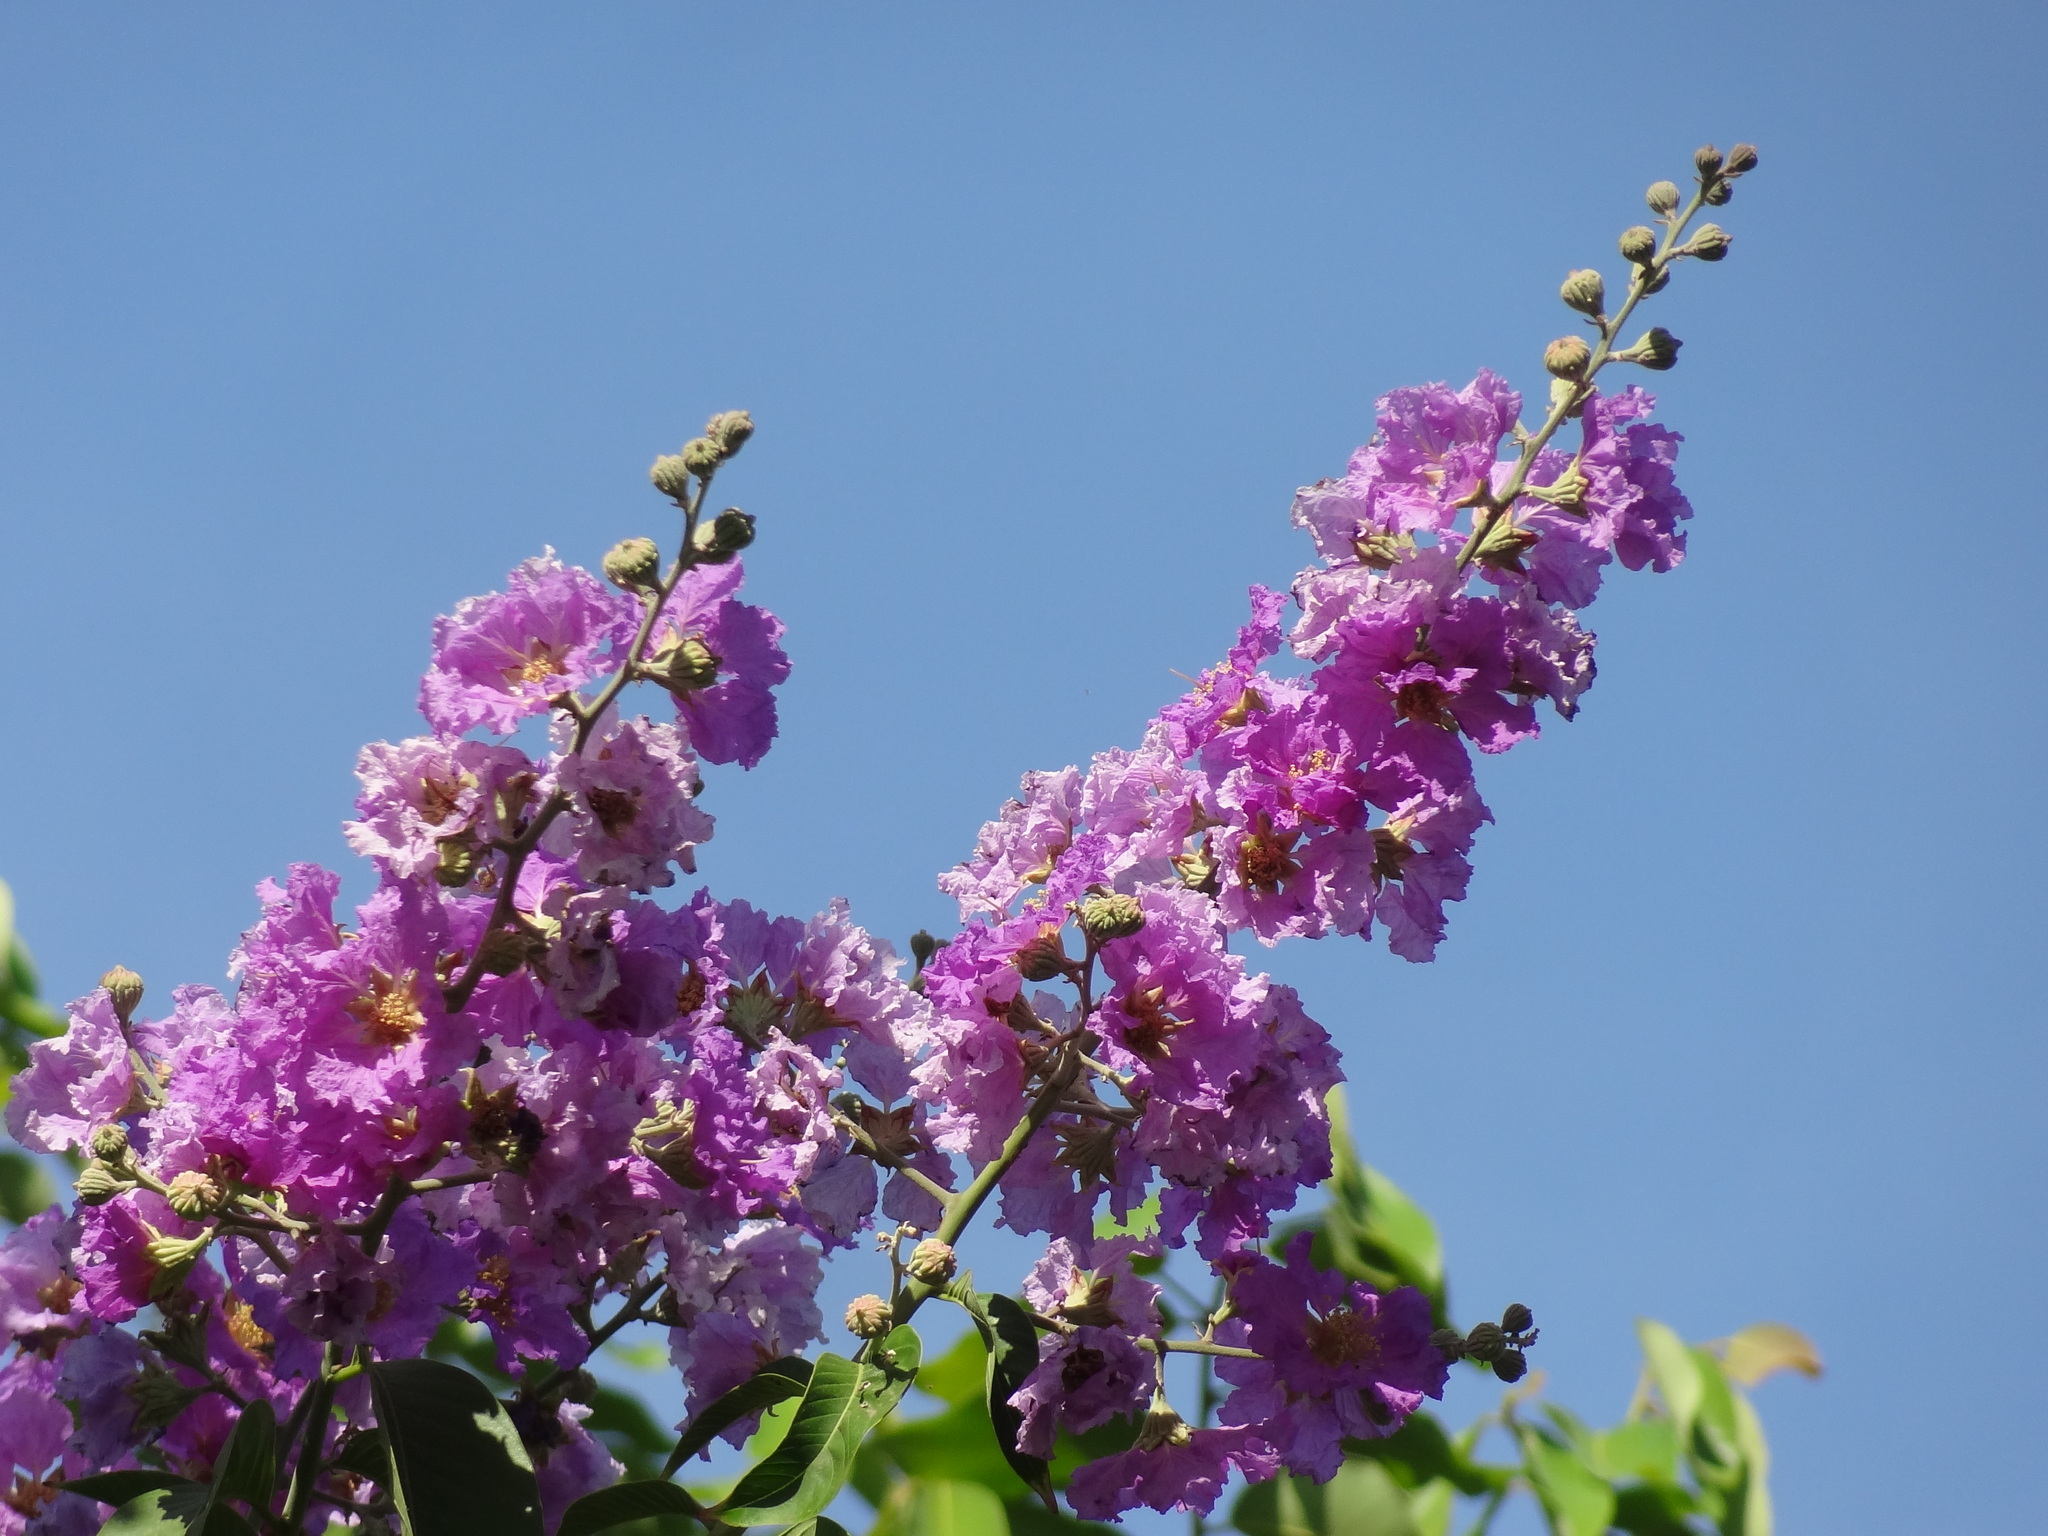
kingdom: Plantae
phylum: Tracheophyta
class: Magnoliopsida
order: Myrtales
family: Lythraceae
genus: Lagerstroemia
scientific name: Lagerstroemia indica
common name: Crape-myrtle
